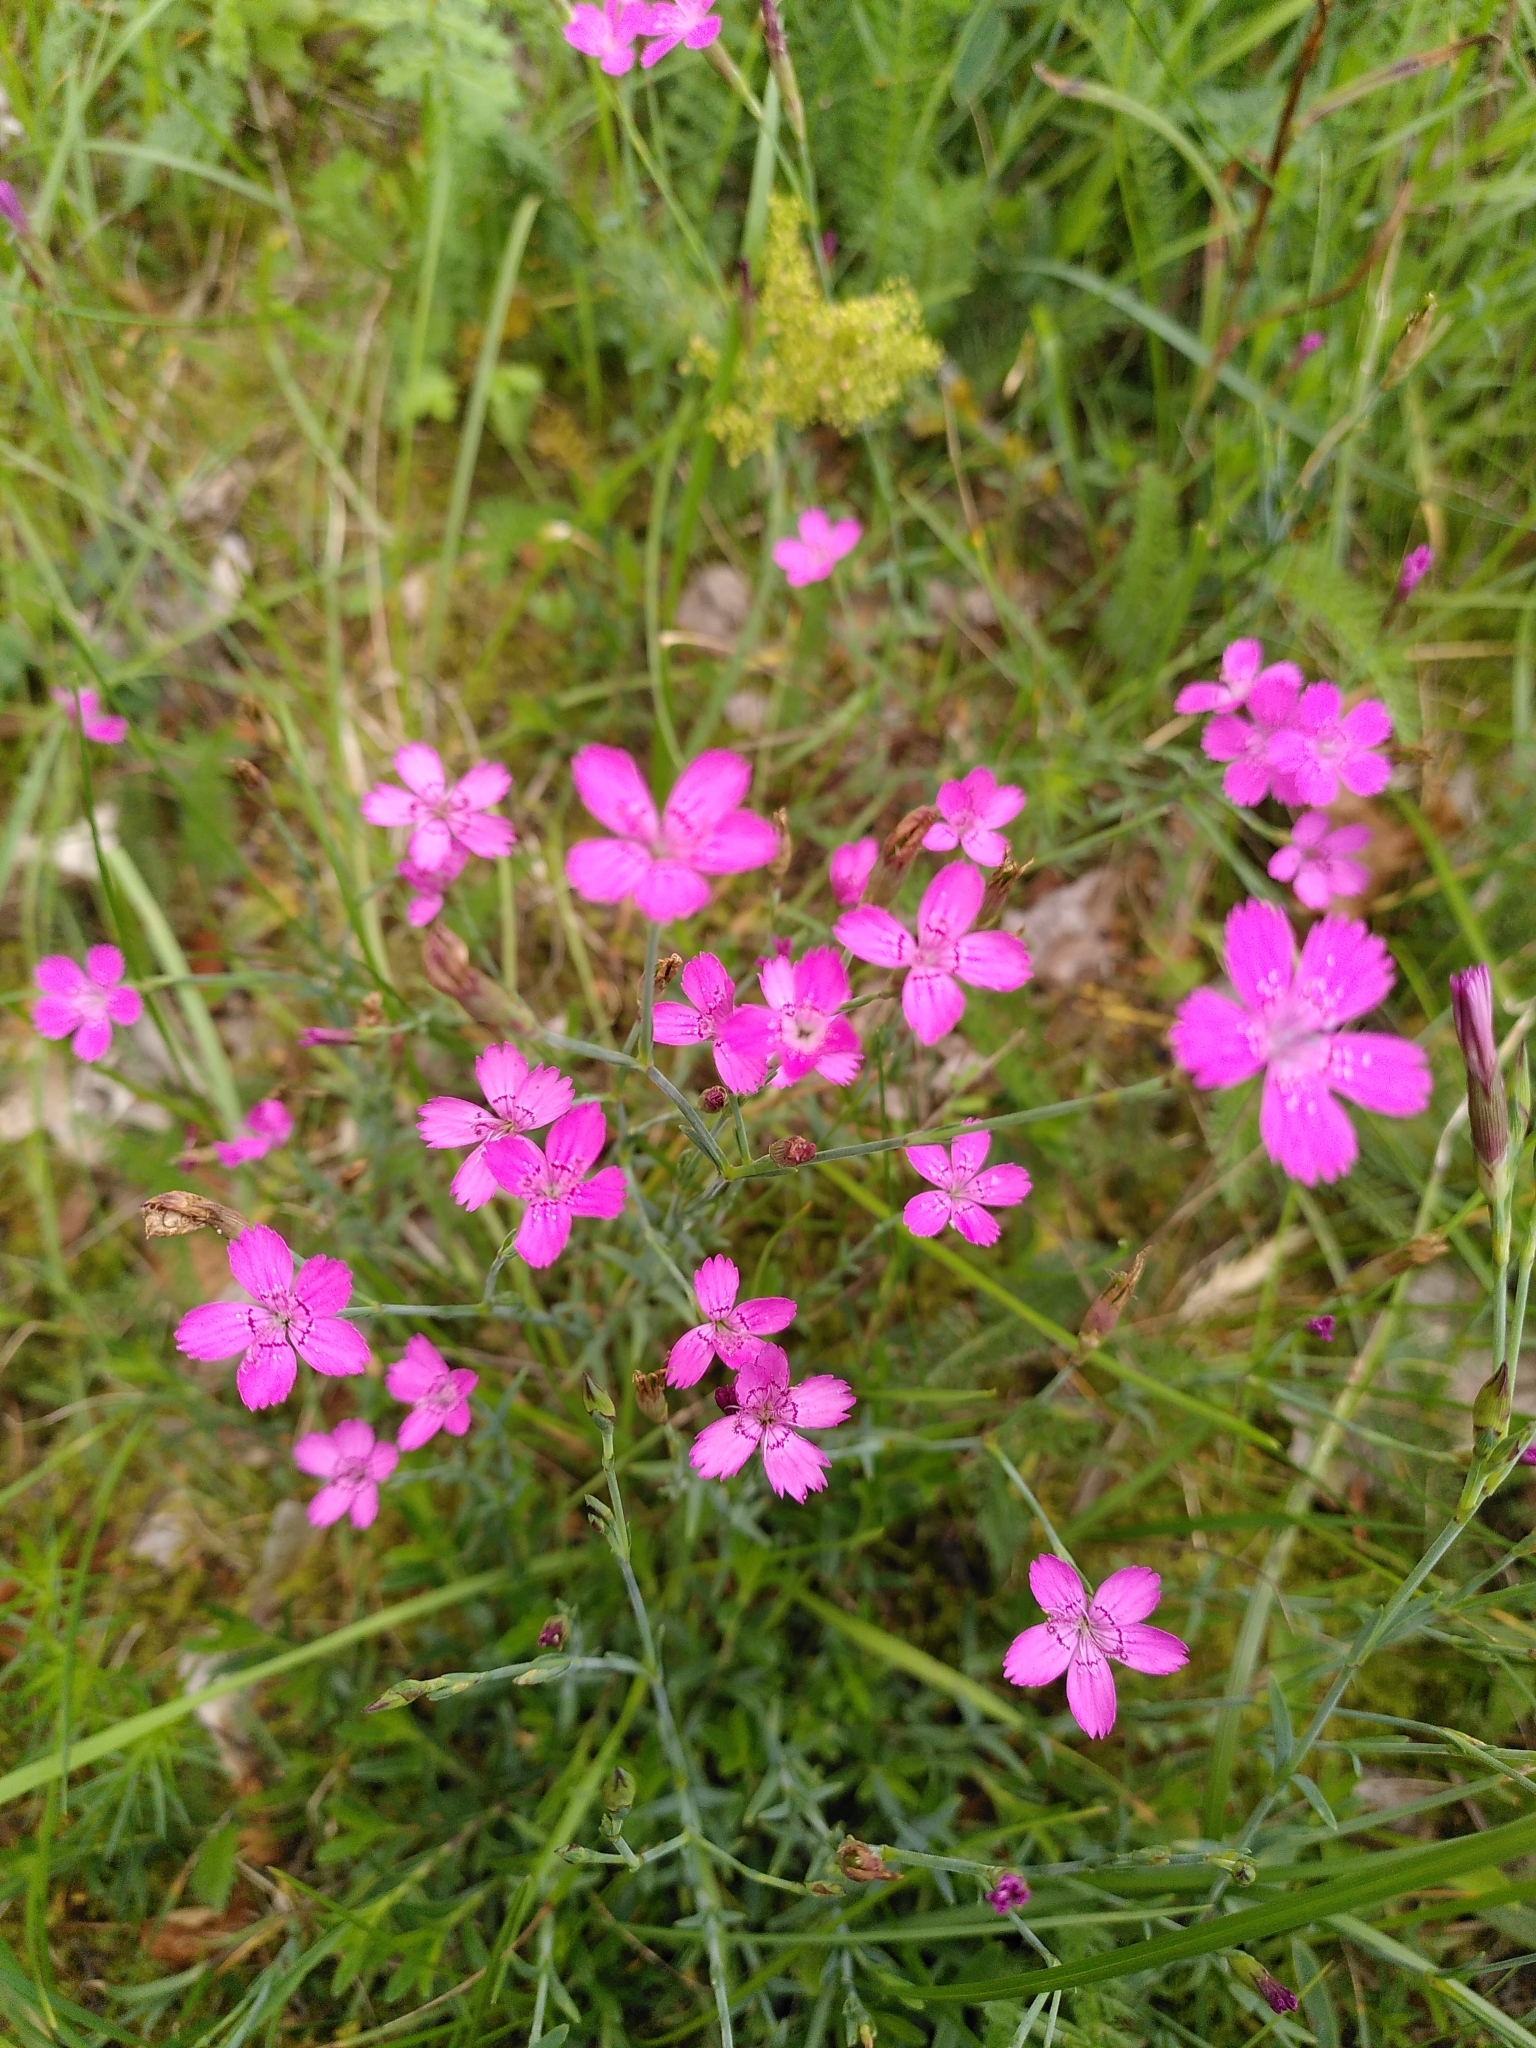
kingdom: Plantae
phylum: Tracheophyta
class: Magnoliopsida
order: Caryophyllales
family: Caryophyllaceae
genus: Dianthus
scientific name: Dianthus deltoides
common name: Maiden pink
